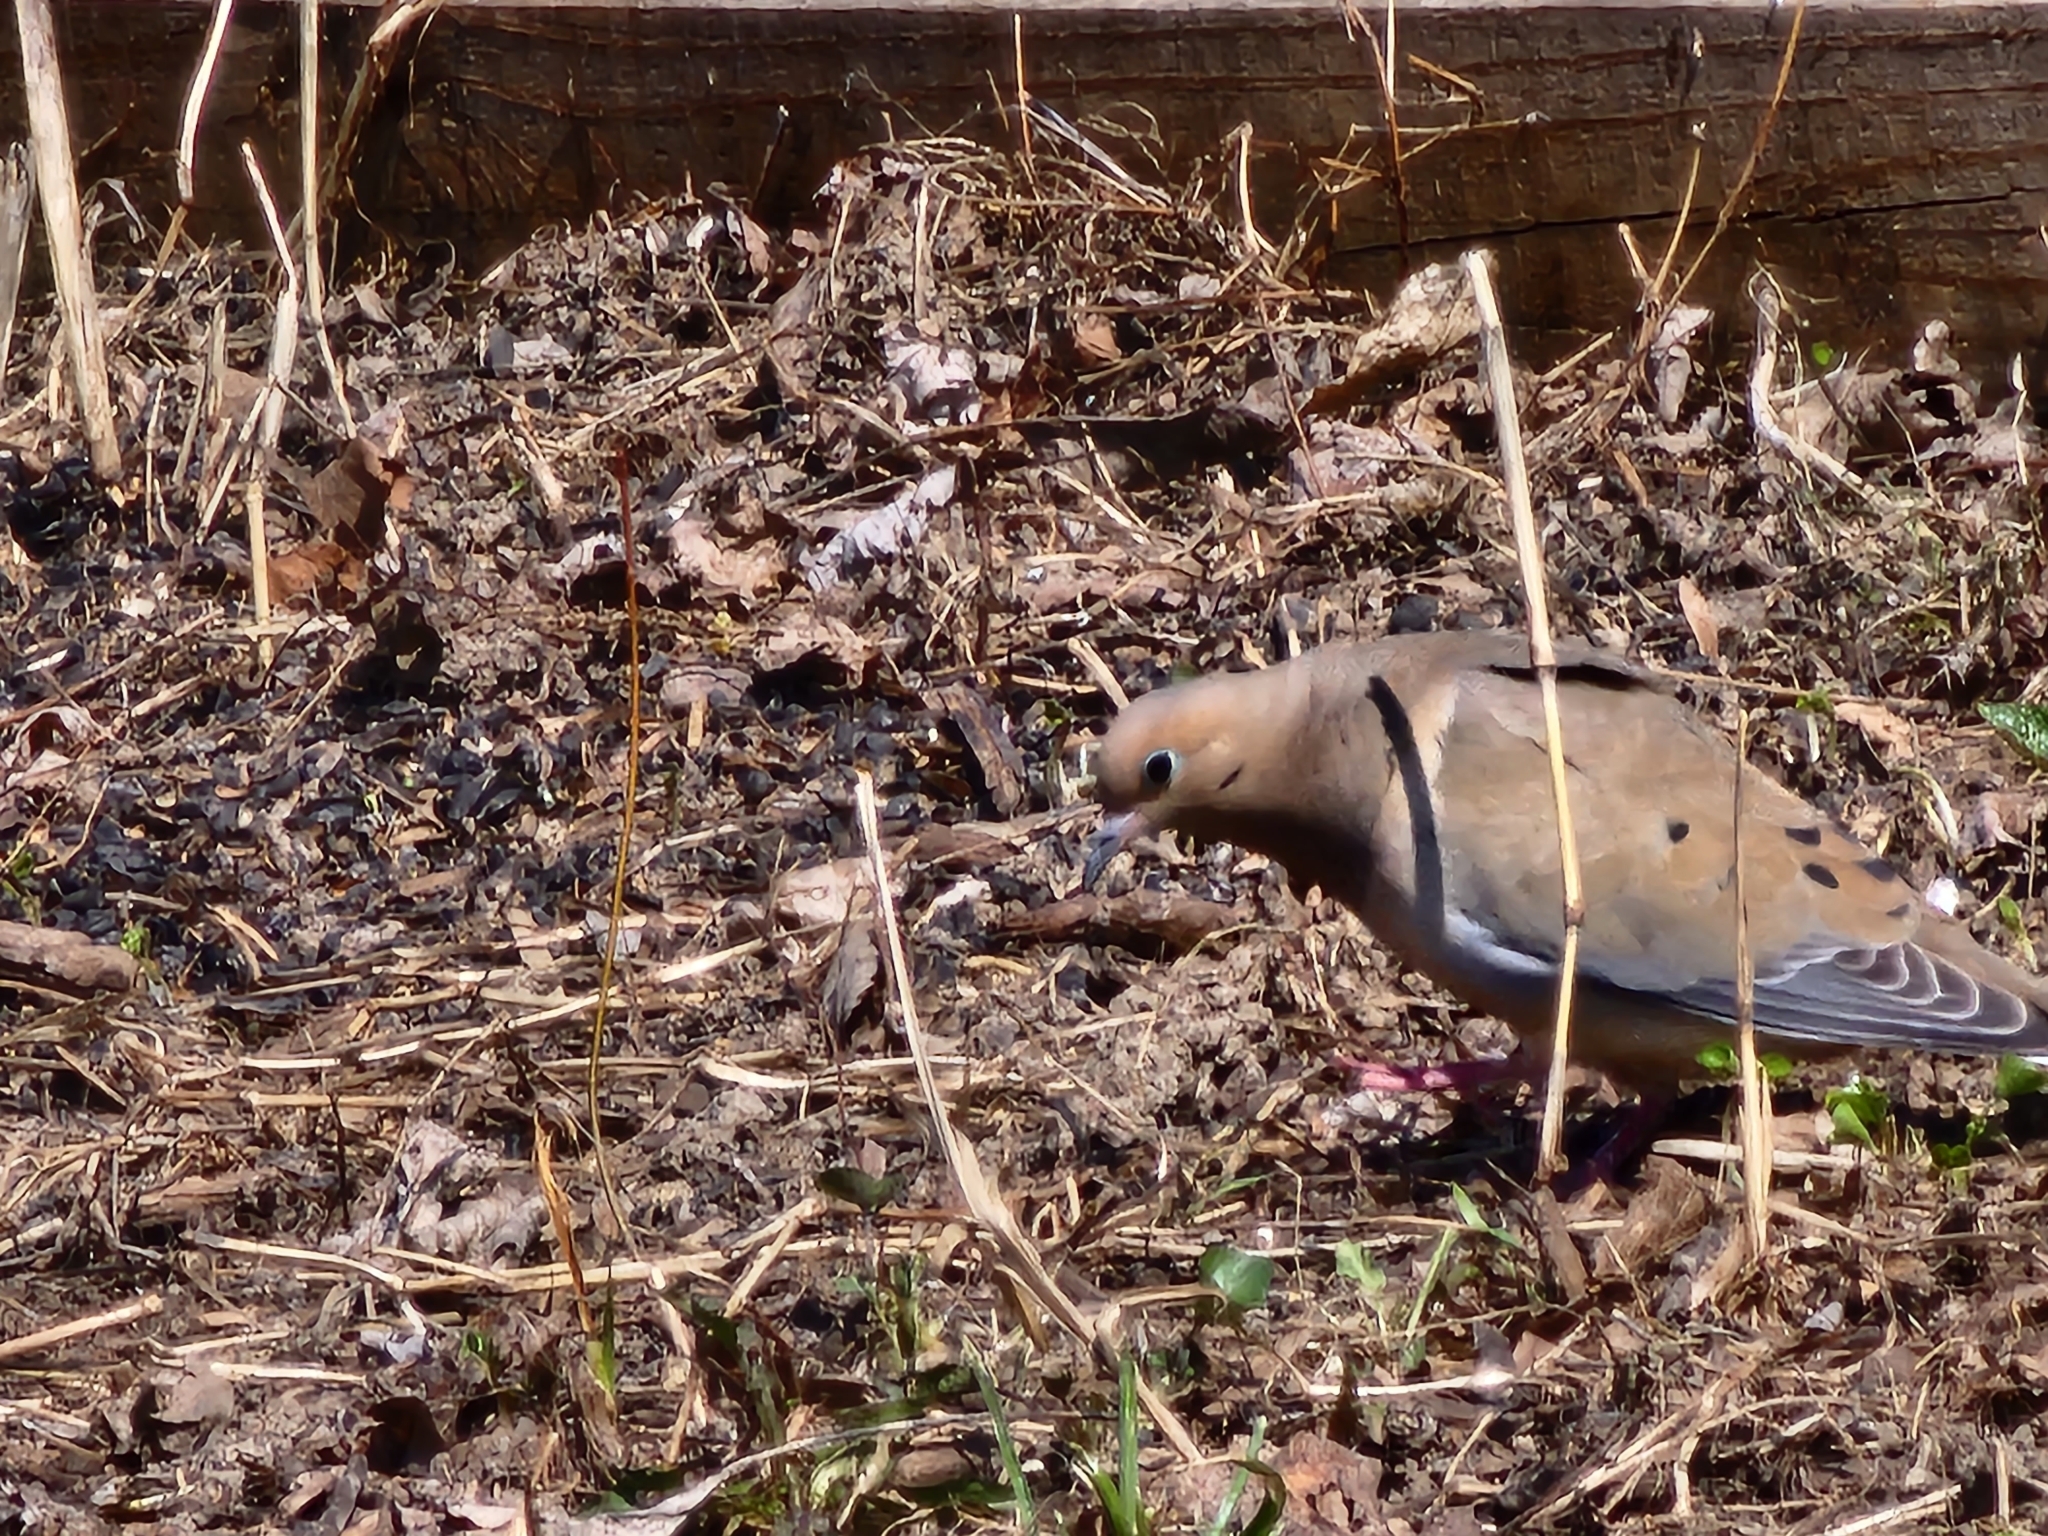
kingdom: Animalia
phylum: Chordata
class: Aves
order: Columbiformes
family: Columbidae
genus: Zenaida
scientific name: Zenaida macroura
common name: Mourning dove
